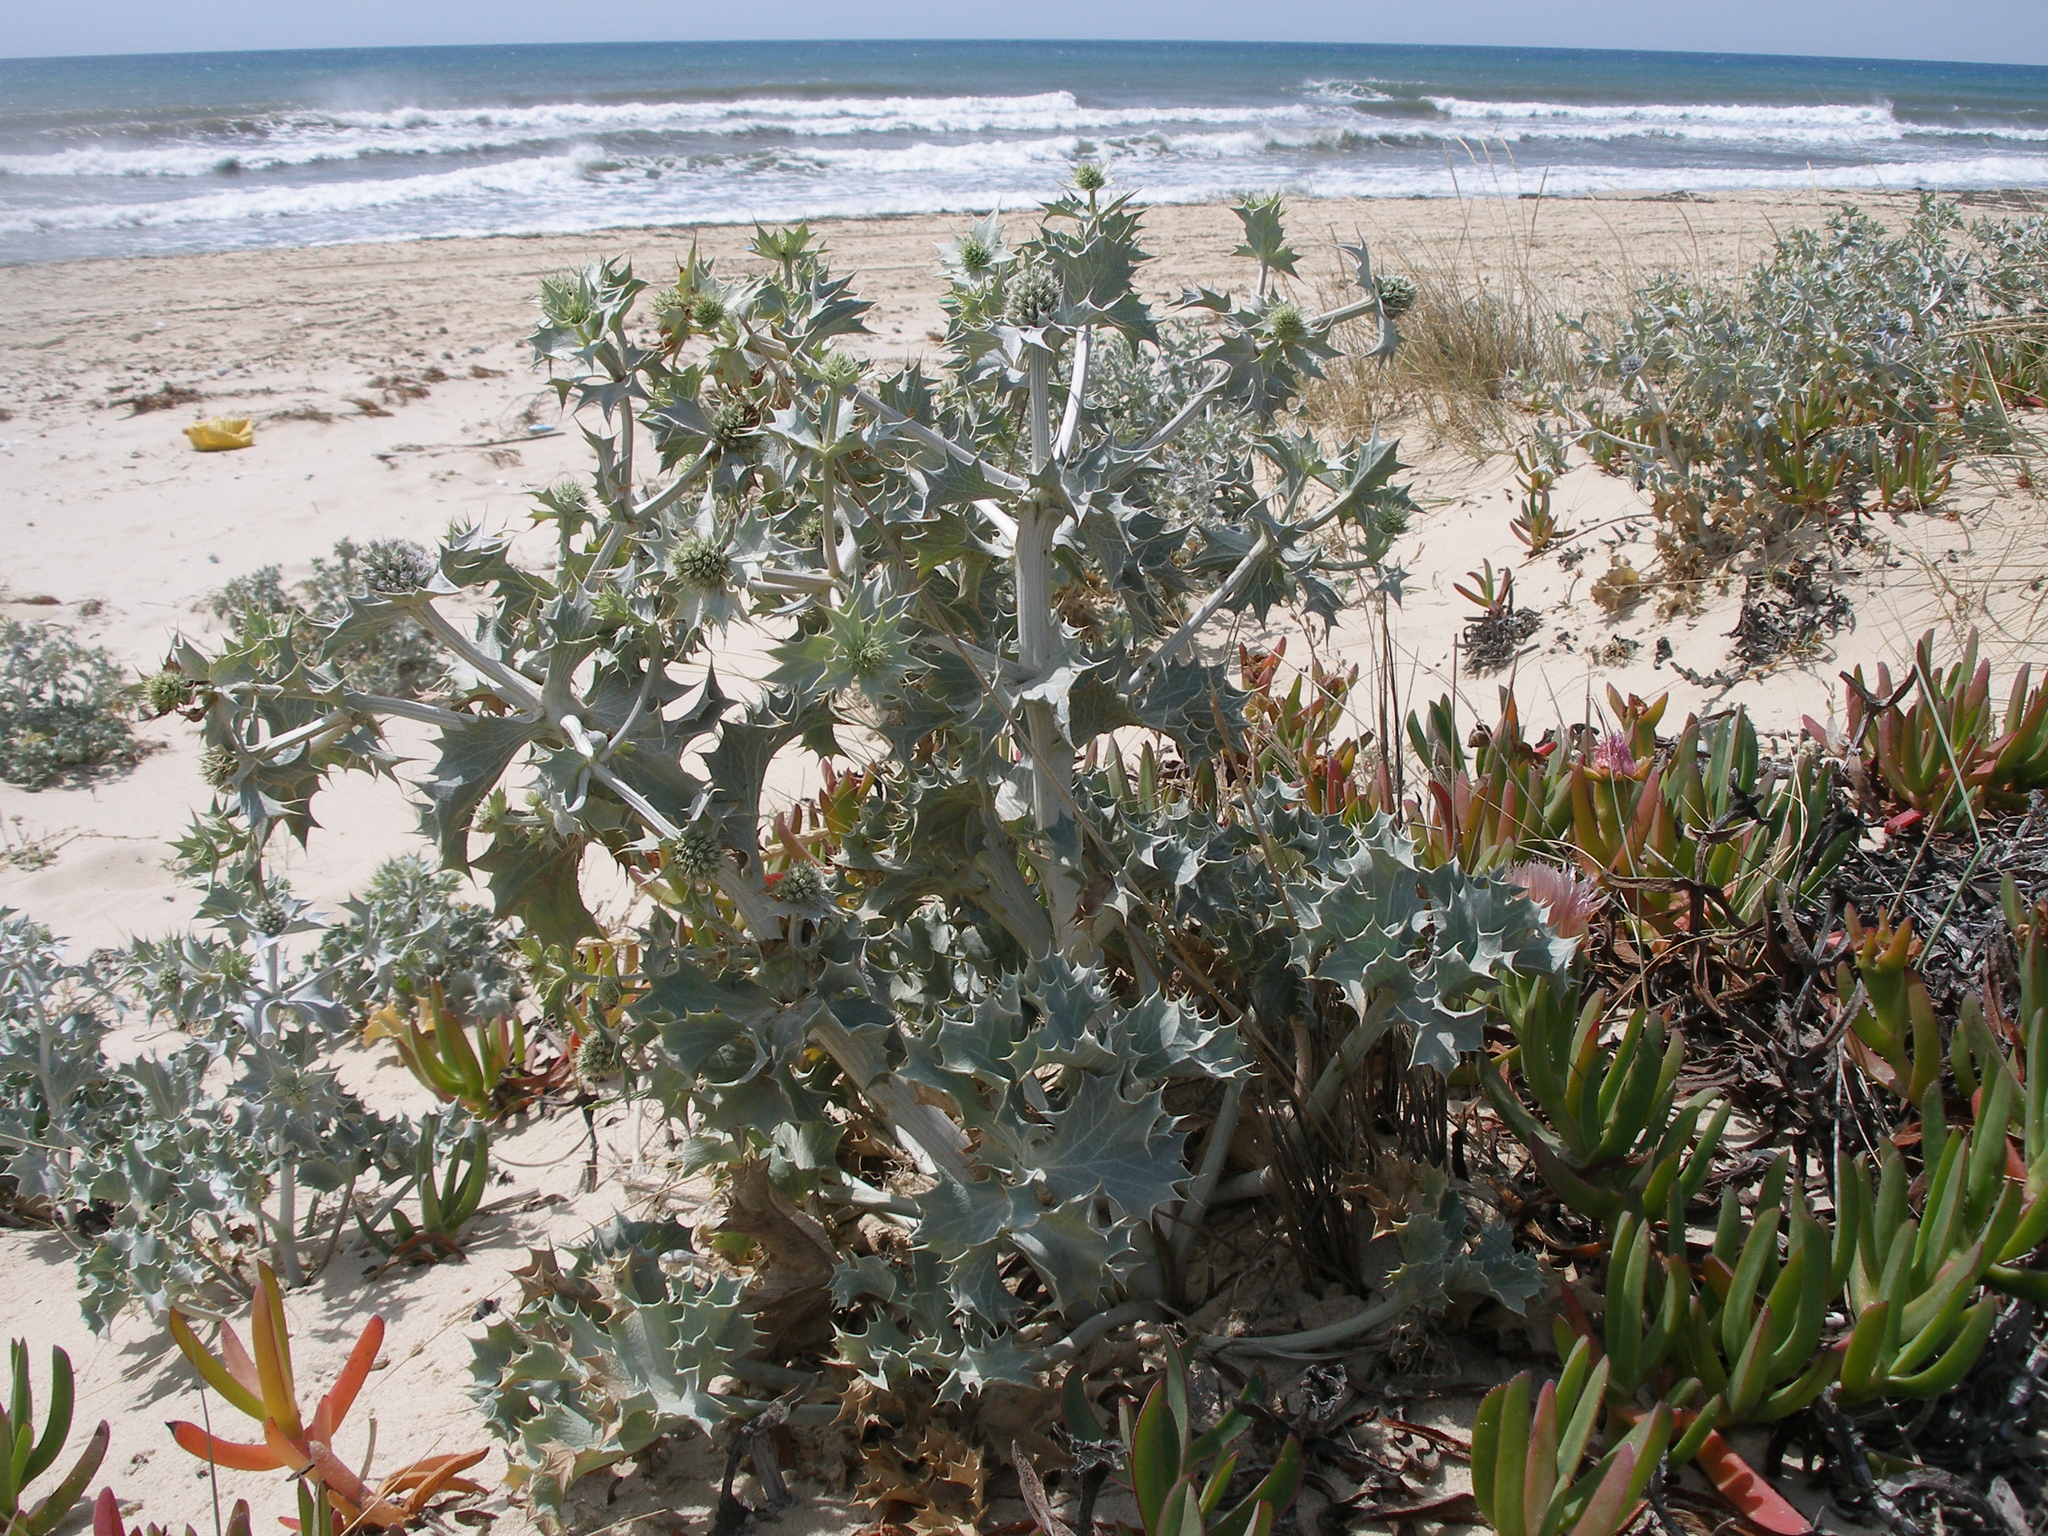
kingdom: Plantae
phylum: Tracheophyta
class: Magnoliopsida
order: Apiales
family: Apiaceae
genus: Eryngium
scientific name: Eryngium maritimum
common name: Sea-holly
